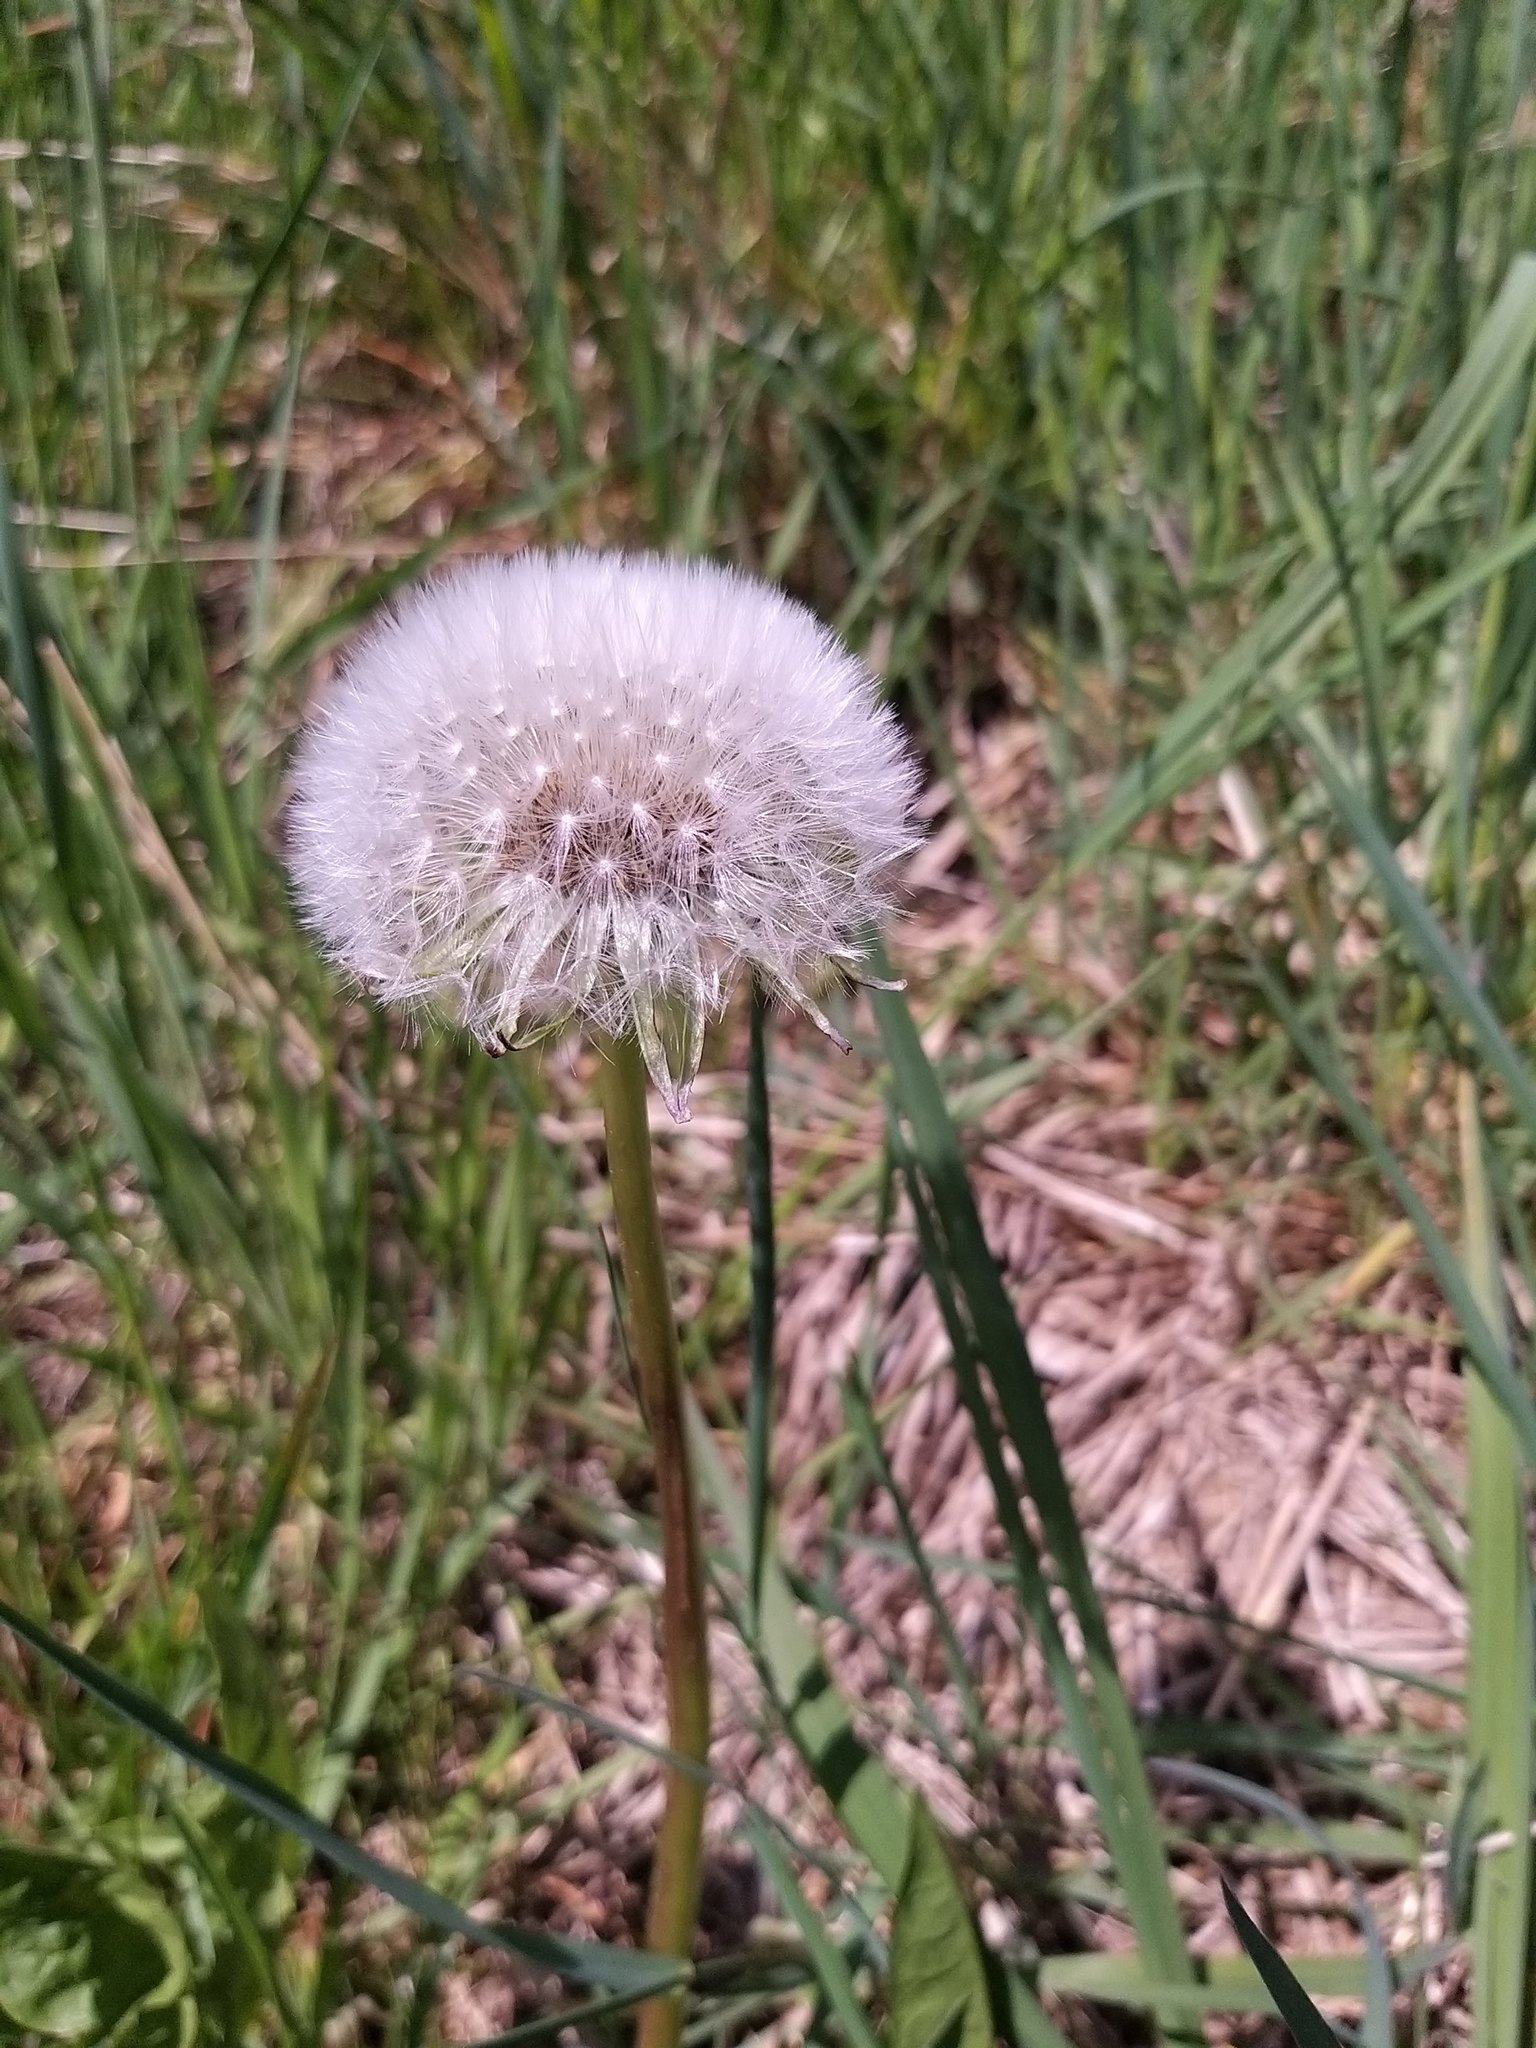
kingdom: Plantae
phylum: Tracheophyta
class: Magnoliopsida
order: Asterales
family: Asteraceae
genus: Taraxacum
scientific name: Taraxacum
